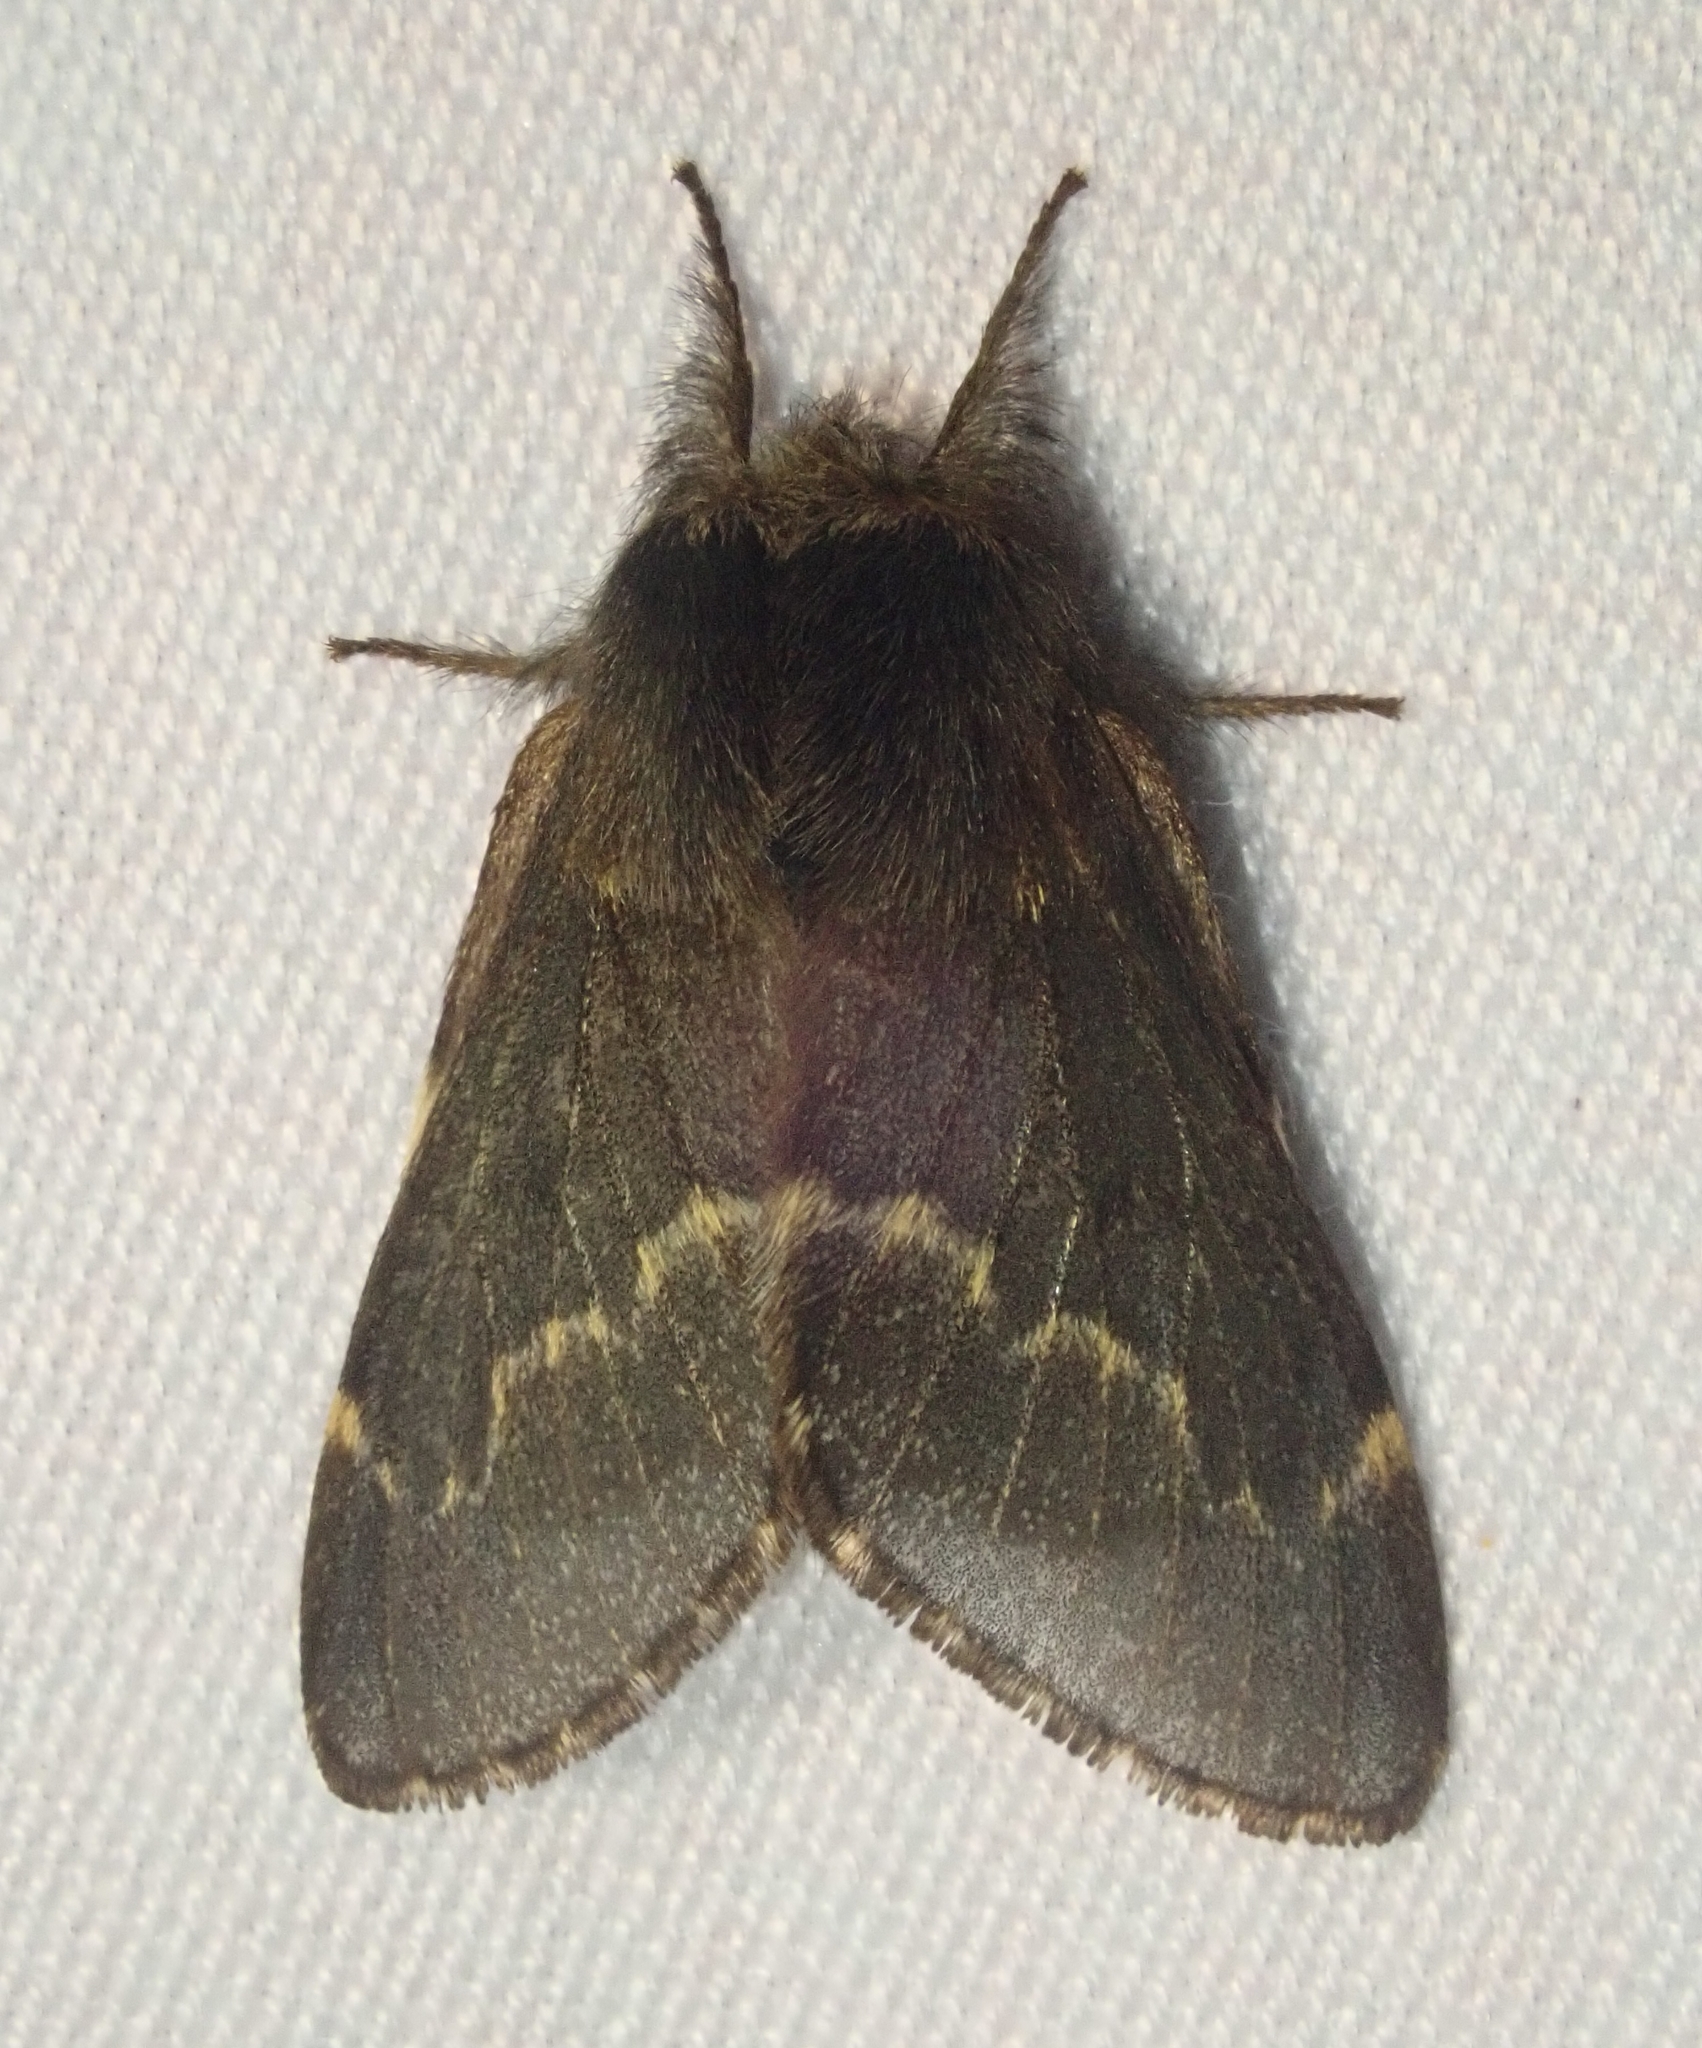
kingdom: Animalia
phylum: Arthropoda
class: Insecta
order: Lepidoptera
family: Lasiocampidae
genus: Poecilocampa
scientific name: Poecilocampa populi
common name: December moth
